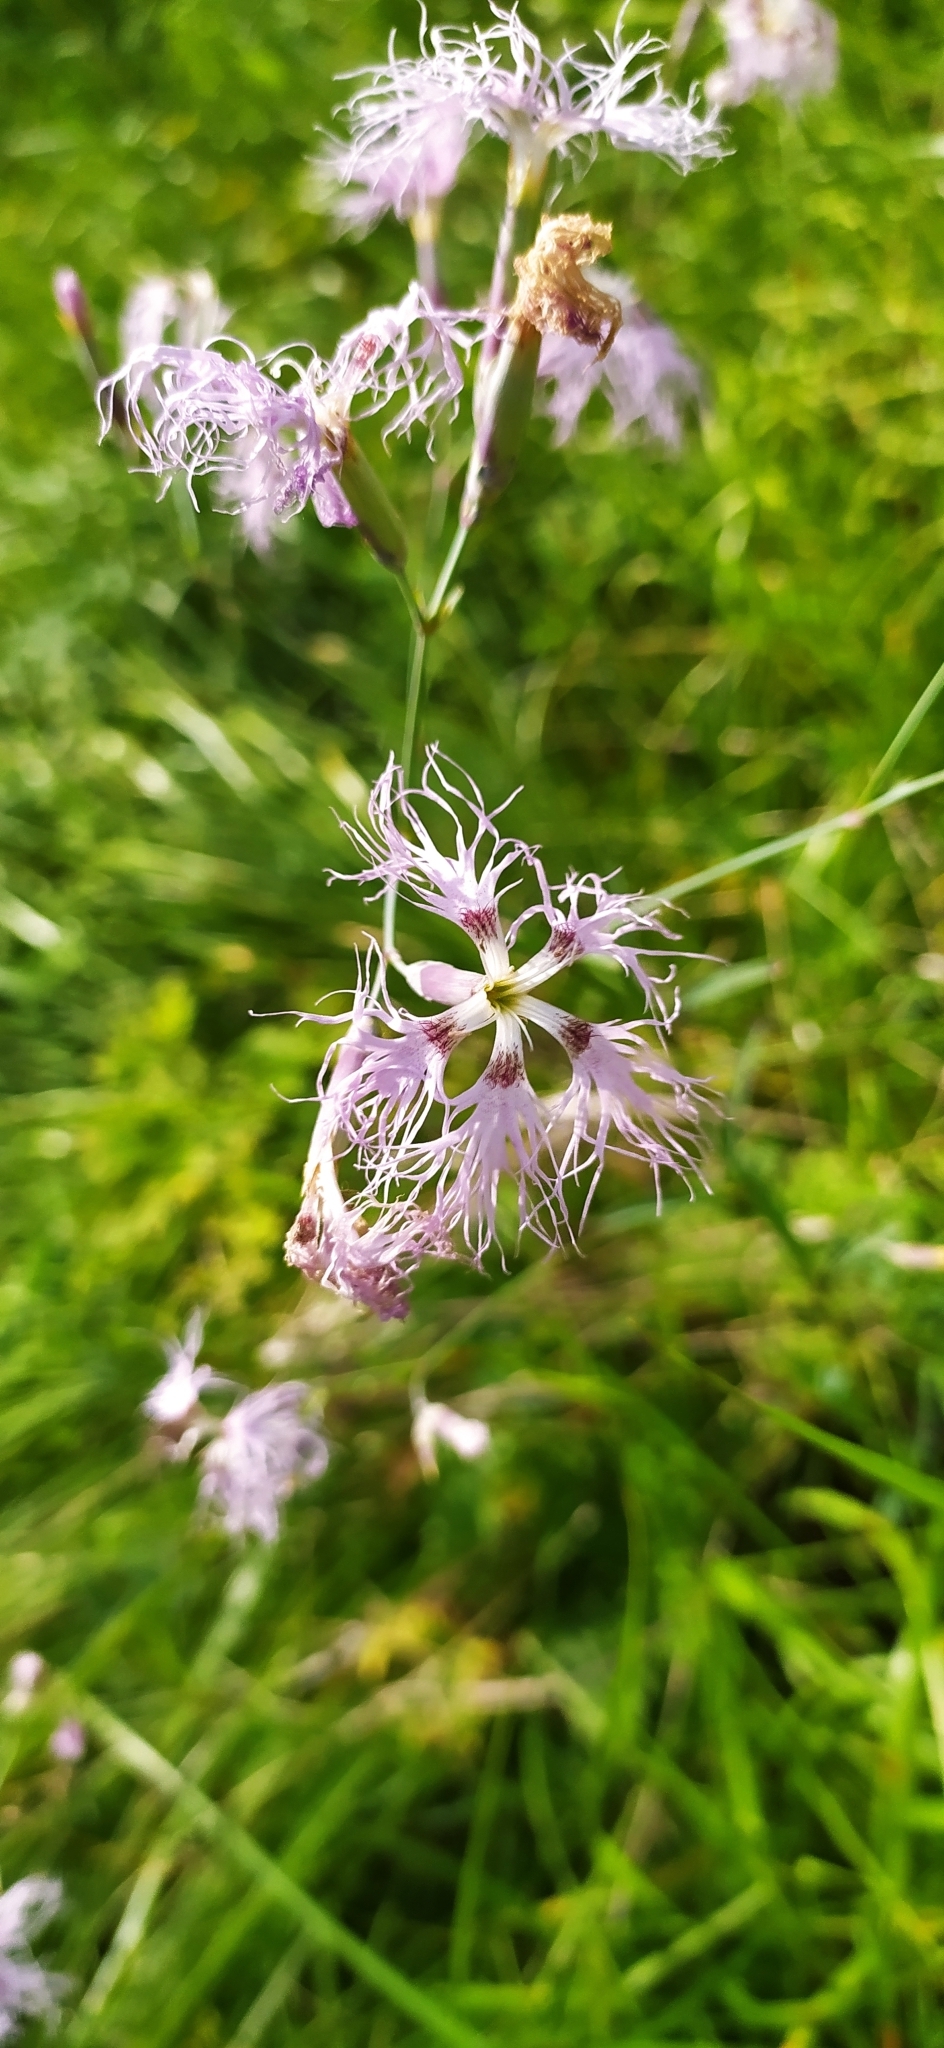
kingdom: Plantae
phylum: Tracheophyta
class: Magnoliopsida
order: Caryophyllales
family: Caryophyllaceae
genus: Dianthus
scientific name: Dianthus superbus
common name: Fringed pink
